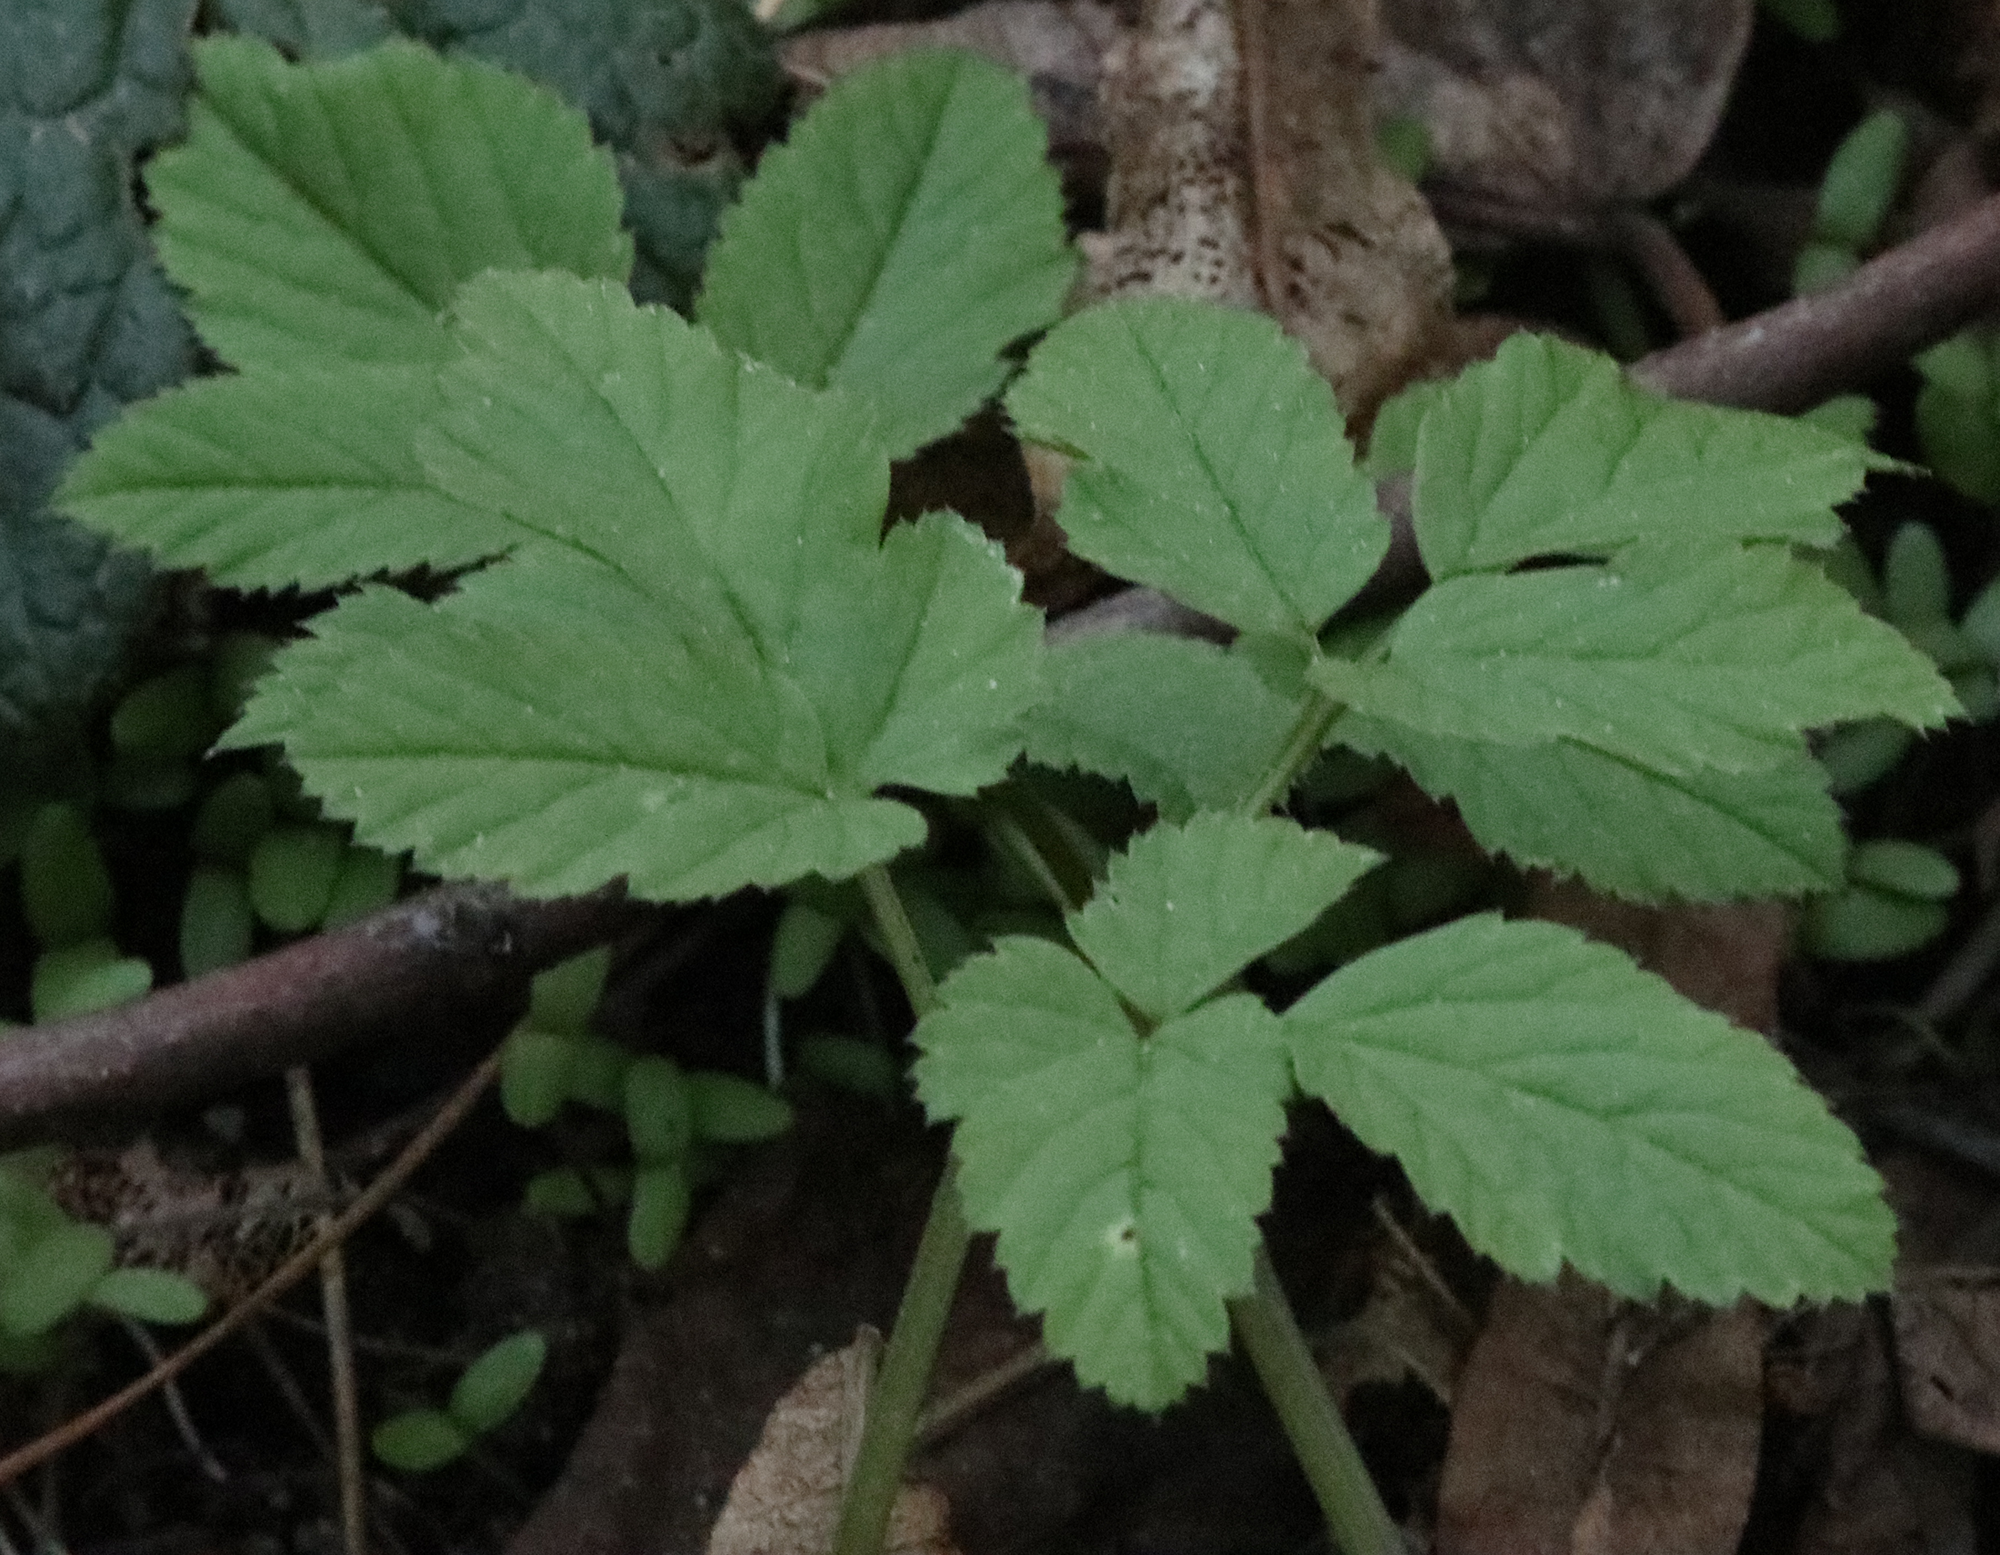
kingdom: Plantae
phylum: Tracheophyta
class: Magnoliopsida
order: Apiales
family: Apiaceae
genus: Aegopodium
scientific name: Aegopodium podagraria
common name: Ground-elder
